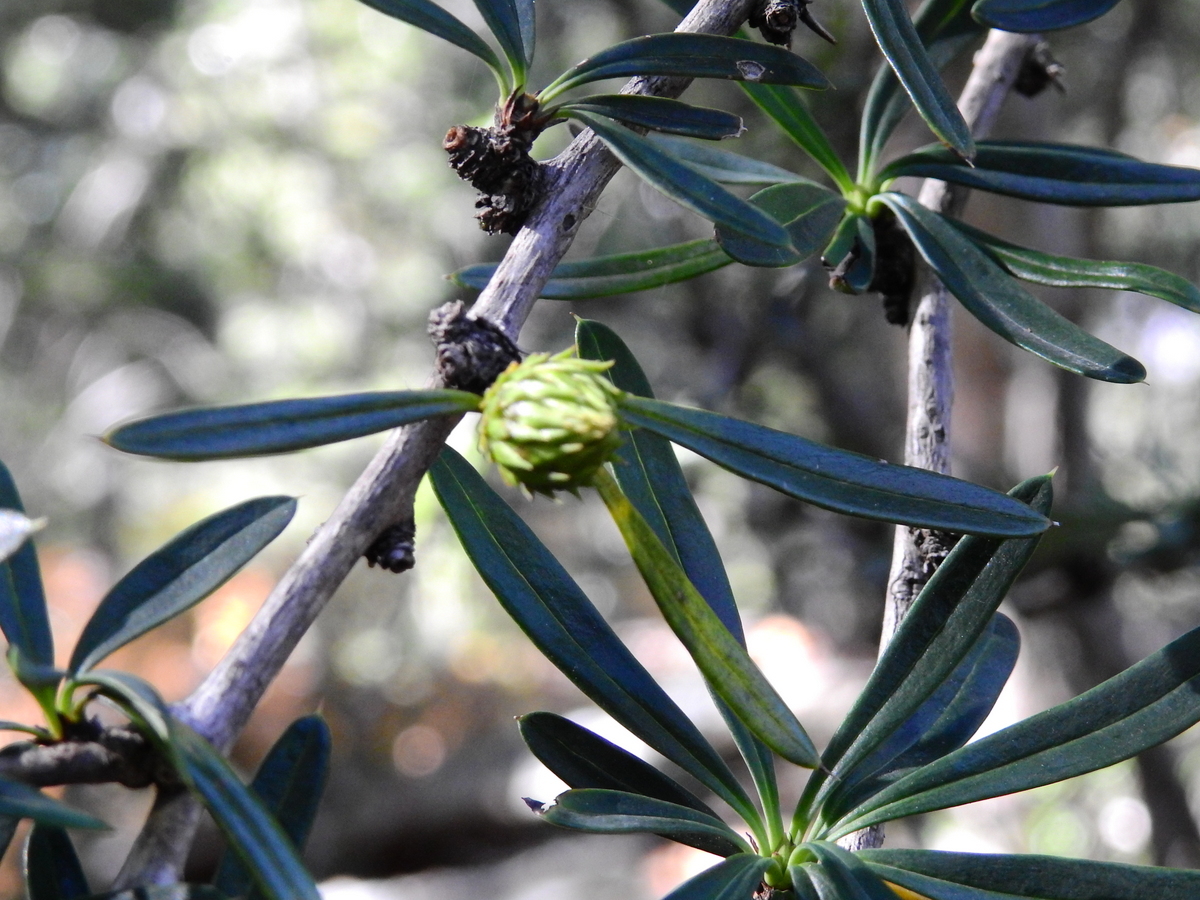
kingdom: Plantae
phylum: Tracheophyta
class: Magnoliopsida
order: Ranunculales
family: Berberidaceae
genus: Berberis
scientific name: Berberis trigona
